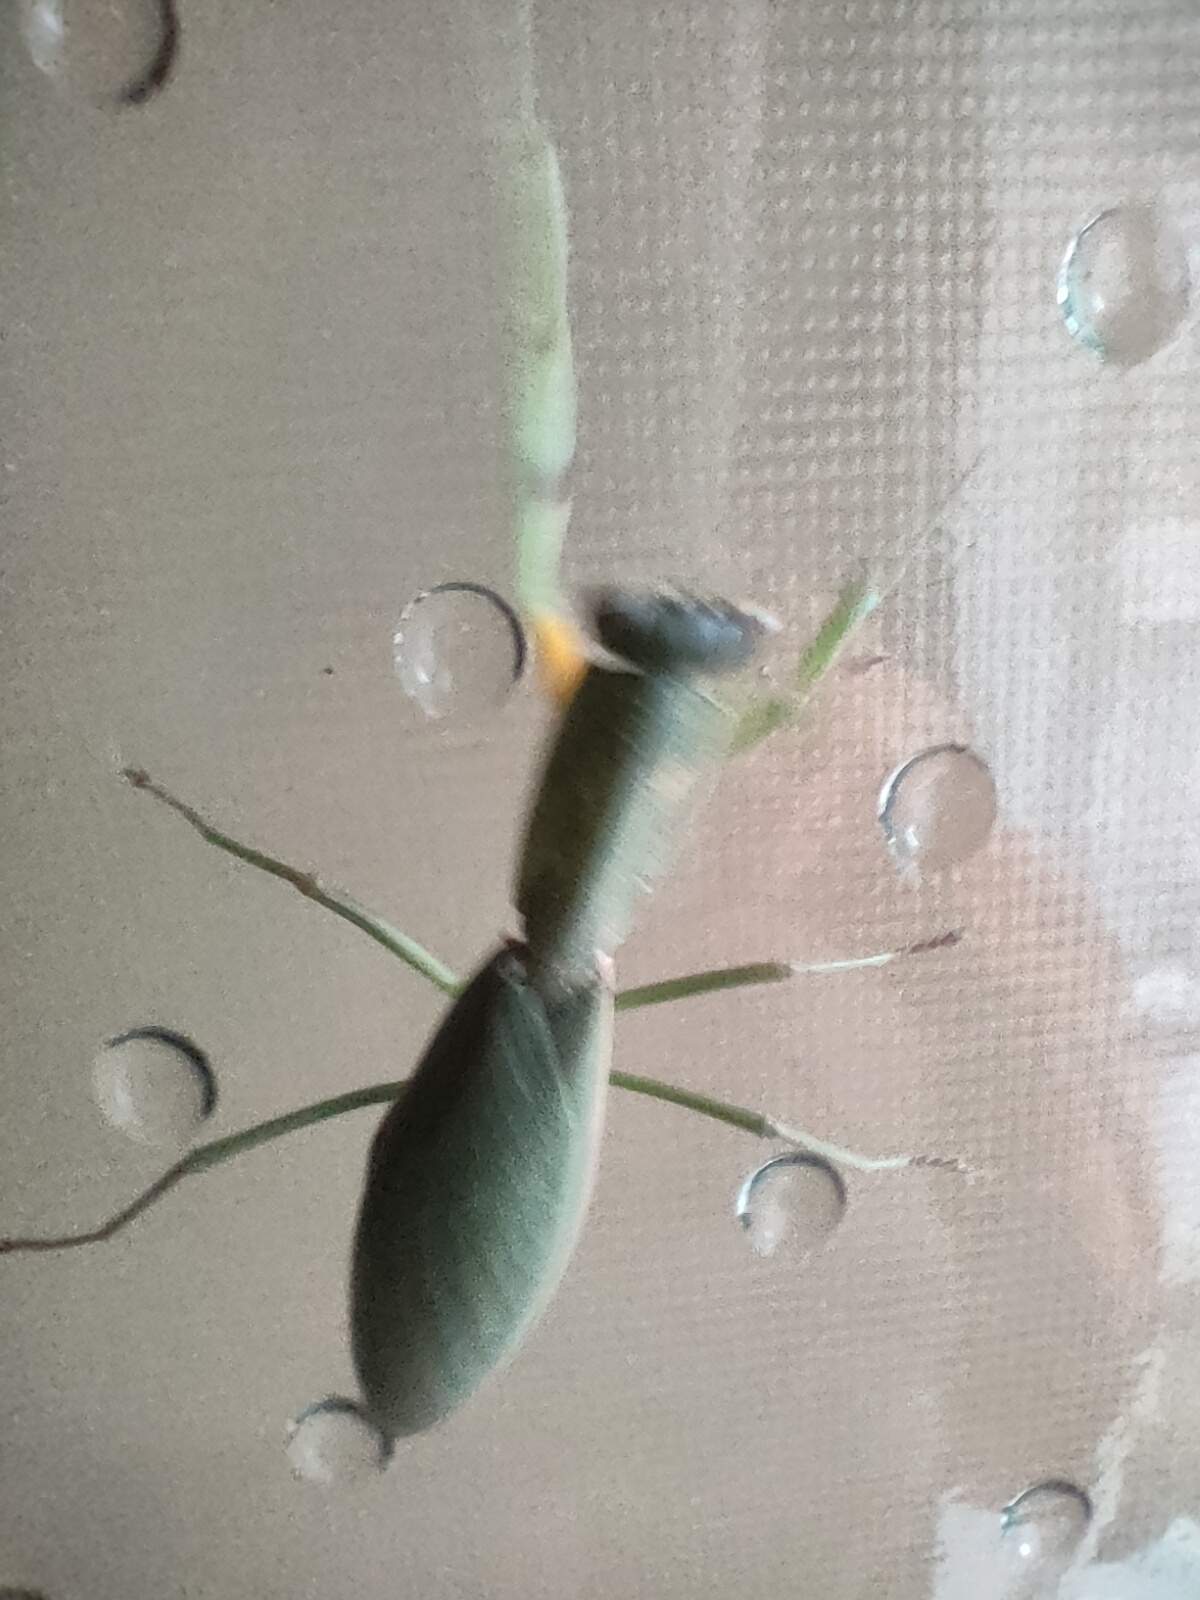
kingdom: Animalia
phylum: Arthropoda
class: Insecta
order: Mantodea
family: Mantidae
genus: Orthodera
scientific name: Orthodera novaezealandiae
